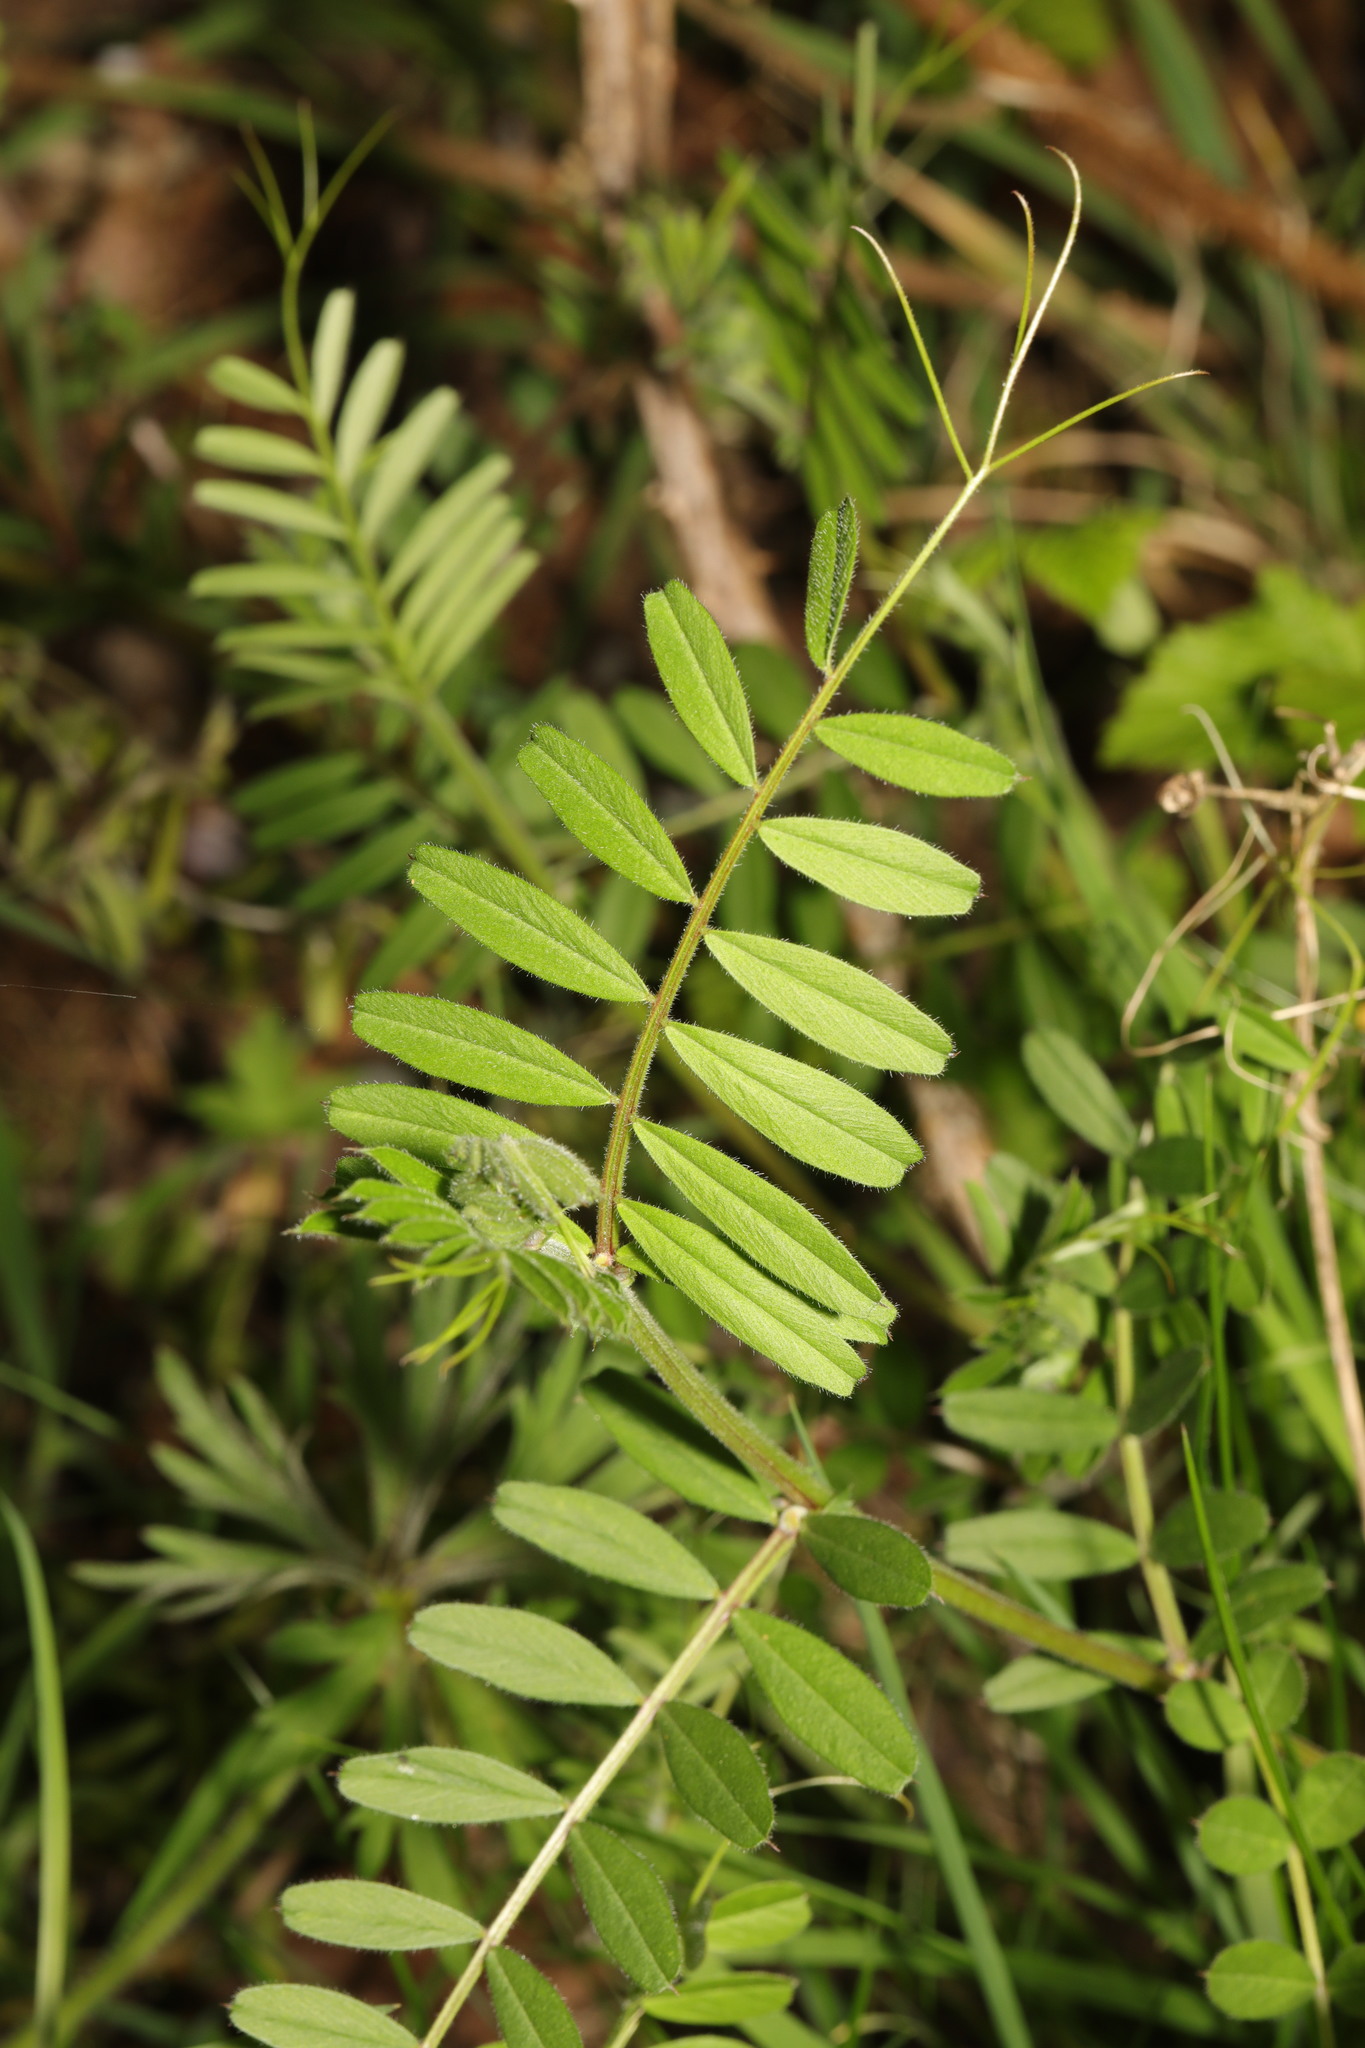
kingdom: Plantae
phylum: Tracheophyta
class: Magnoliopsida
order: Fabales
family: Fabaceae
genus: Vicia
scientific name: Vicia sativa
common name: Garden vetch
